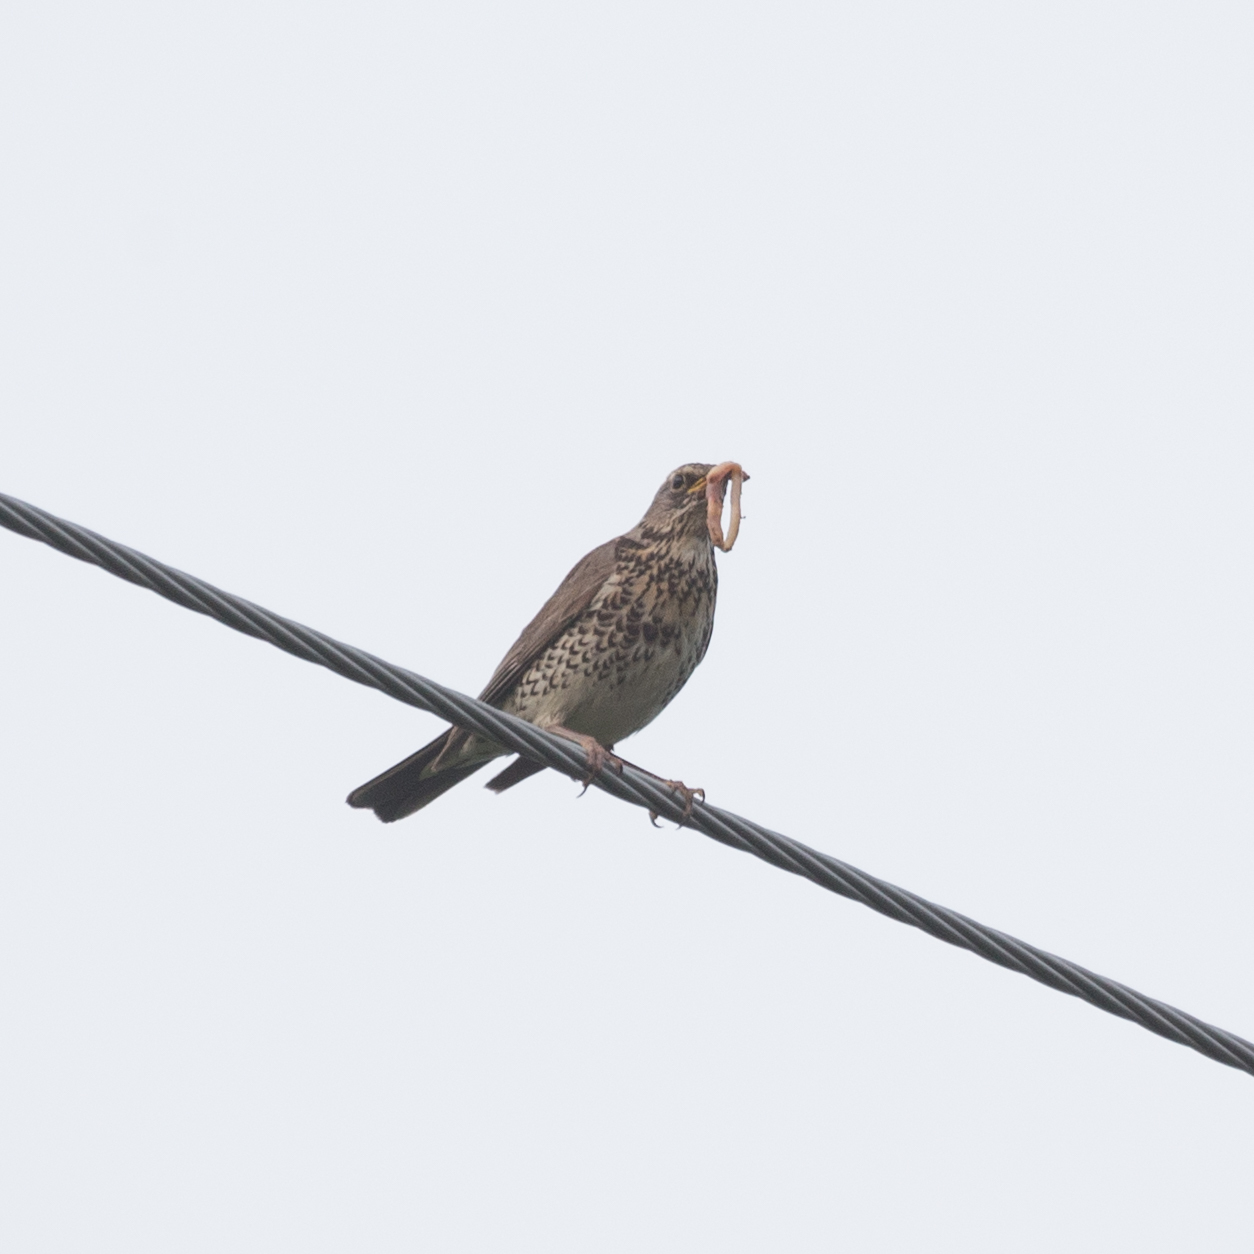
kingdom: Animalia
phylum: Chordata
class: Aves
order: Passeriformes
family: Turdidae
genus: Turdus
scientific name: Turdus pilaris
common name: Fieldfare
